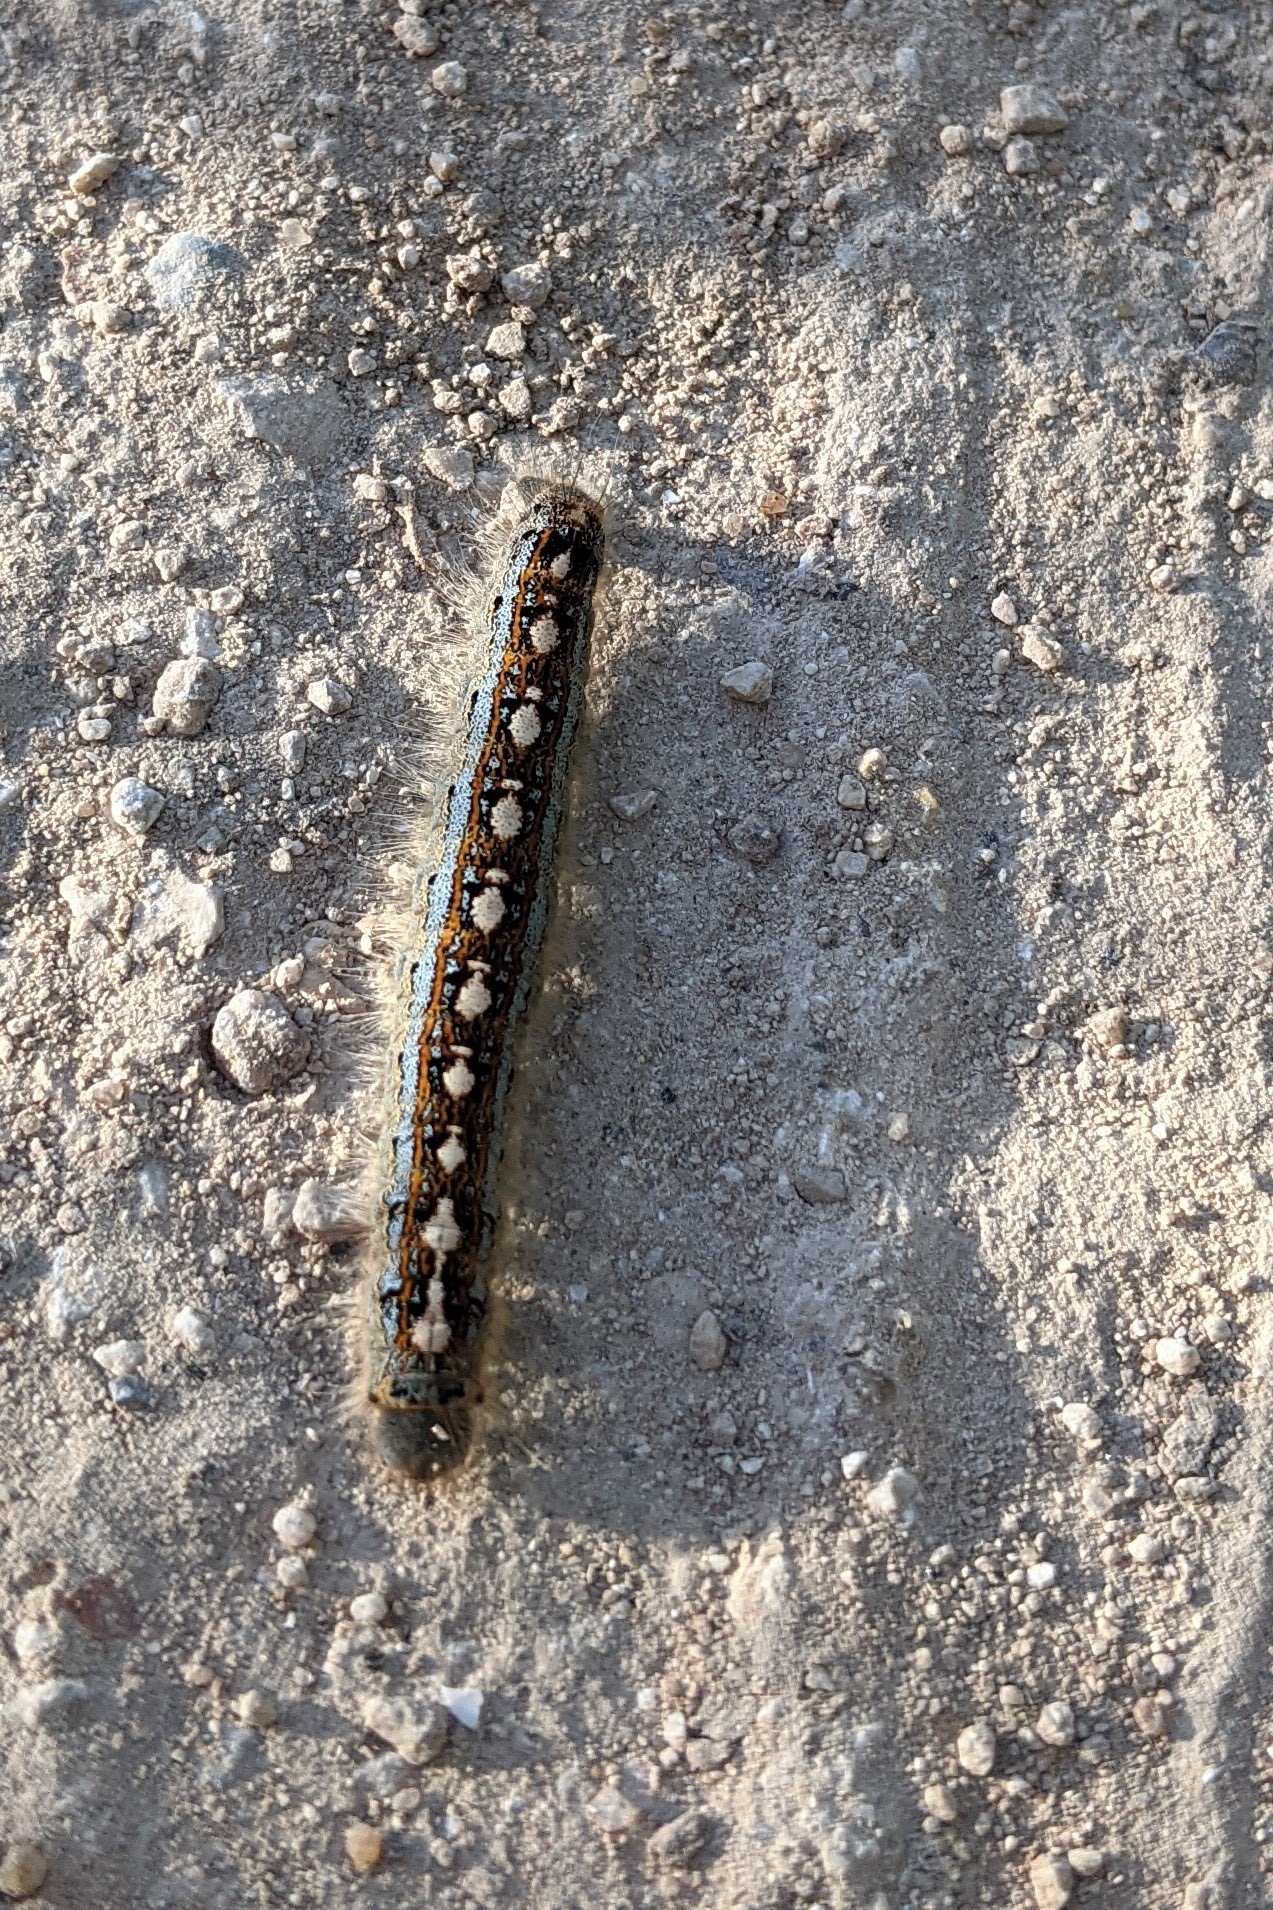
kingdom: Animalia
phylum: Arthropoda
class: Insecta
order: Lepidoptera
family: Lasiocampidae
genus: Malacosoma
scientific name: Malacosoma disstria
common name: Forest tent caterpillar
